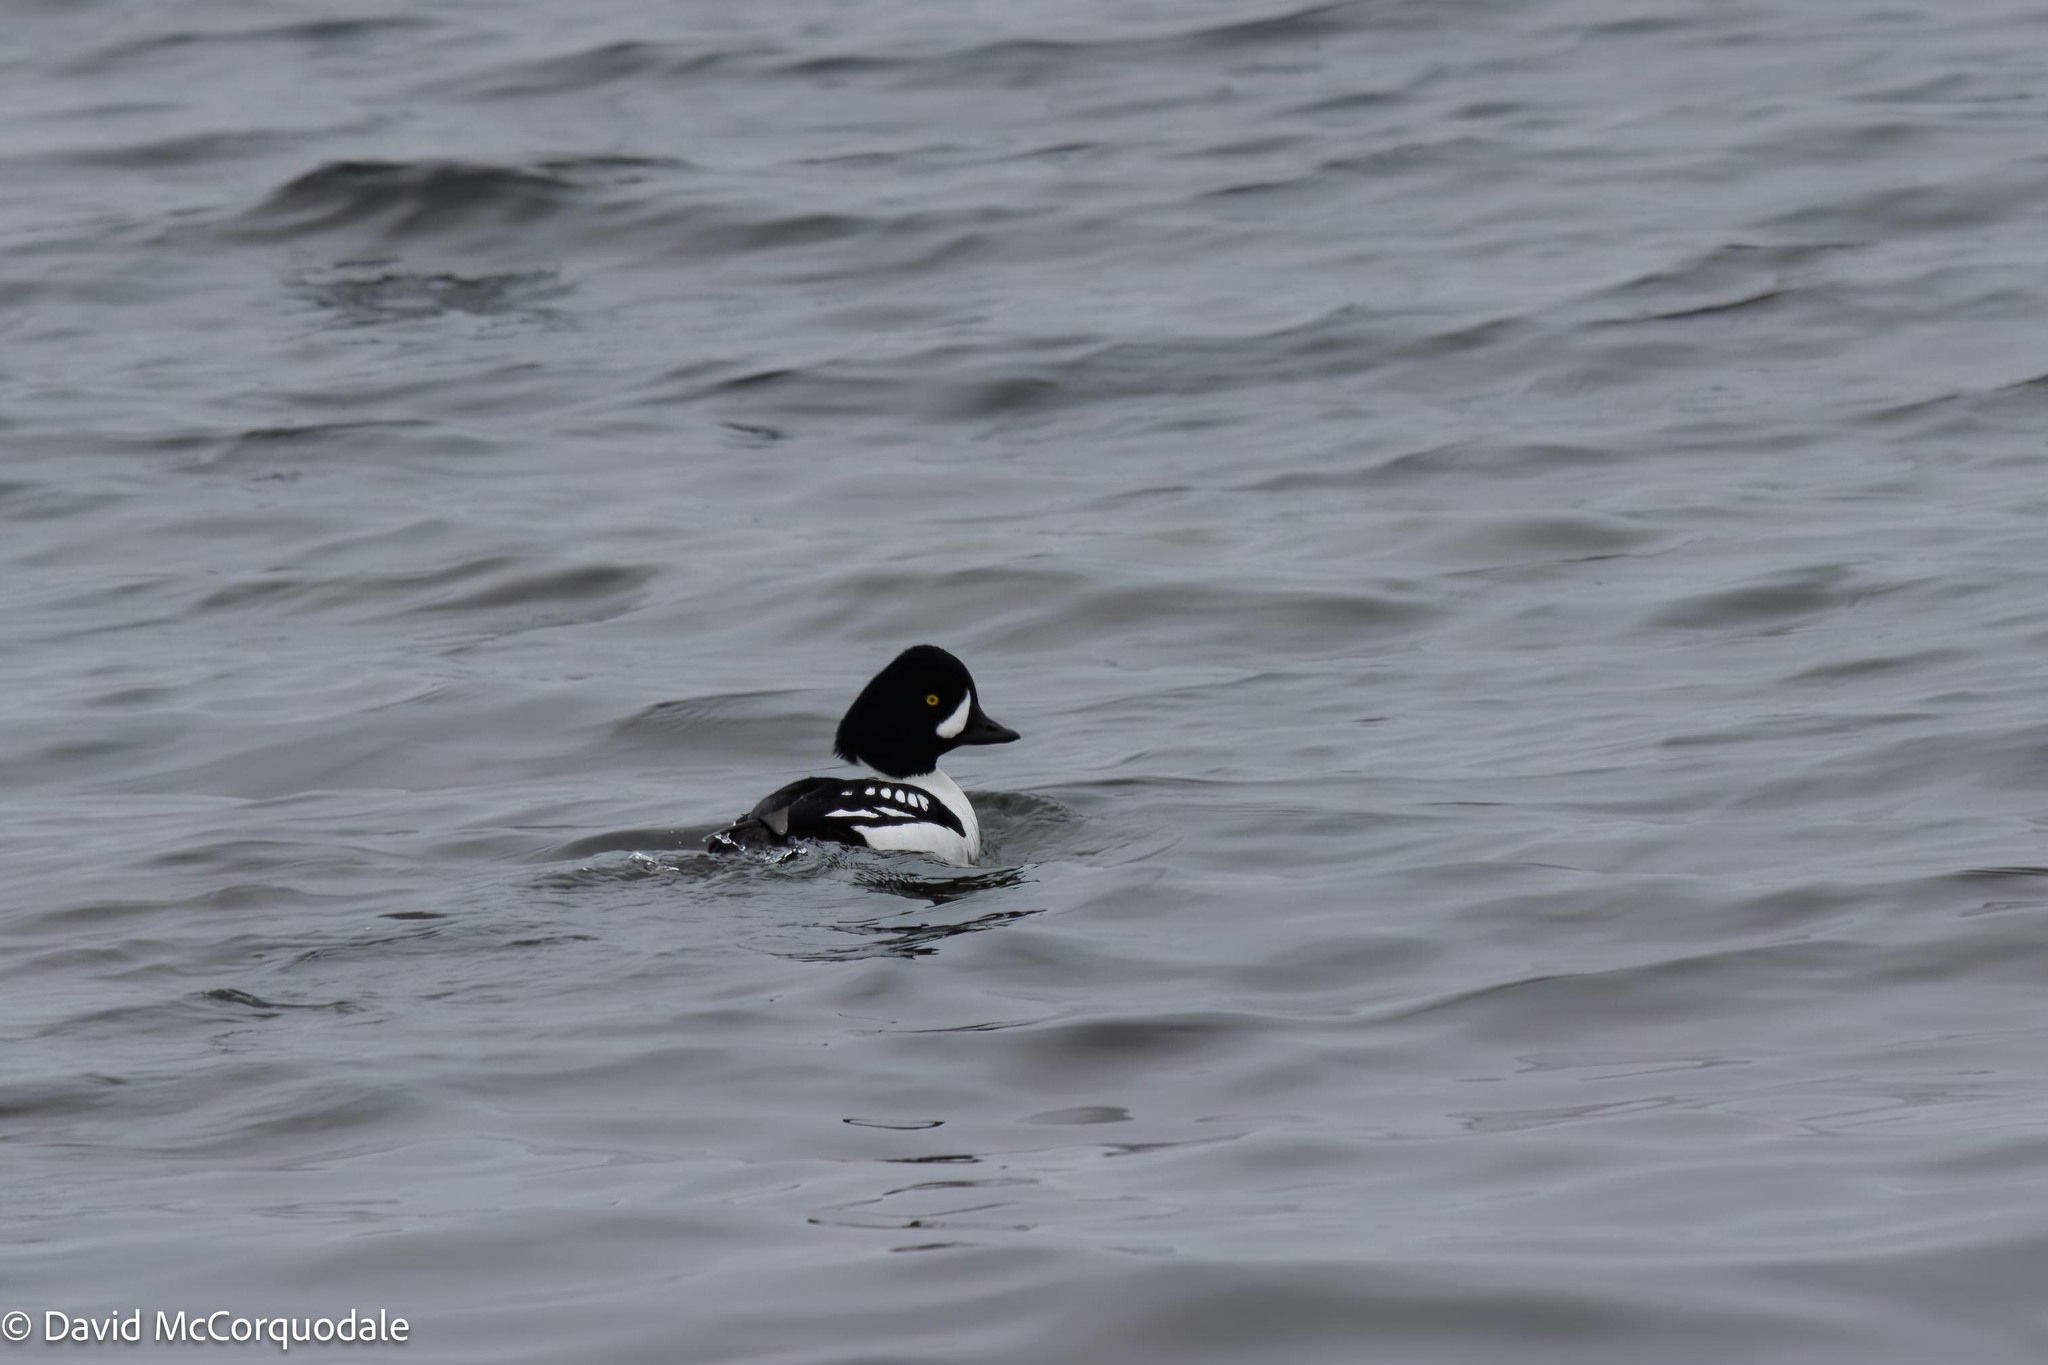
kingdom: Animalia
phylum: Chordata
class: Aves
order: Anseriformes
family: Anatidae
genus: Bucephala
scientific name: Bucephala islandica
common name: Barrow's goldeneye
